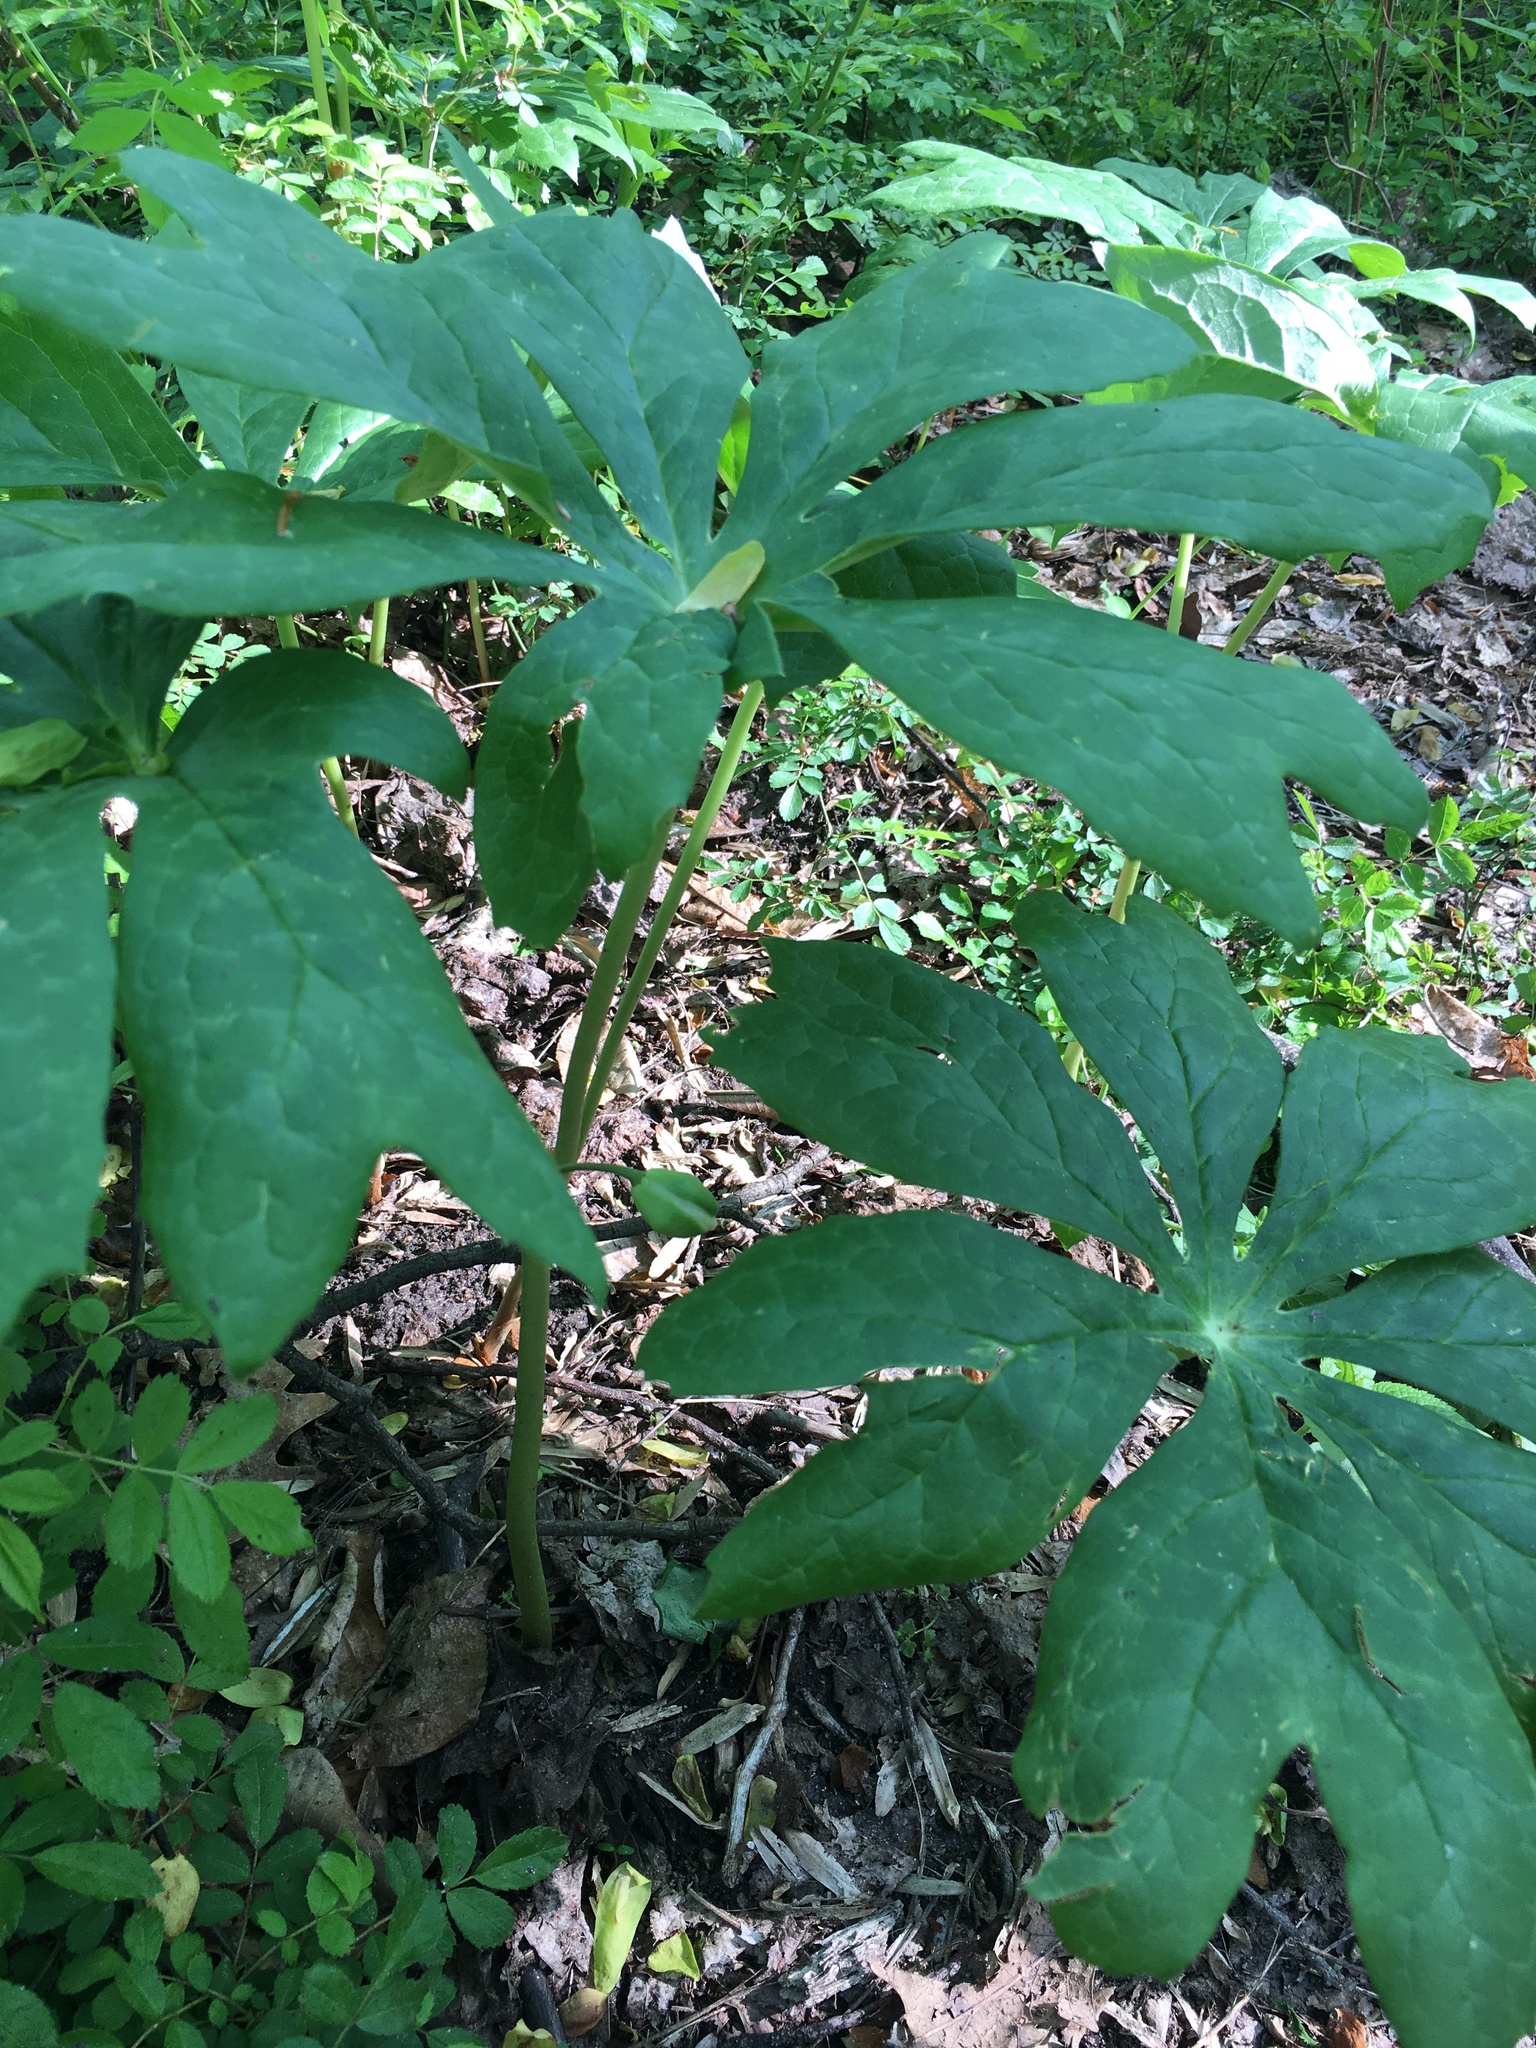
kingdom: Plantae
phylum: Tracheophyta
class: Magnoliopsida
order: Ranunculales
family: Berberidaceae
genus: Podophyllum
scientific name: Podophyllum peltatum
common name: Wild mandrake
